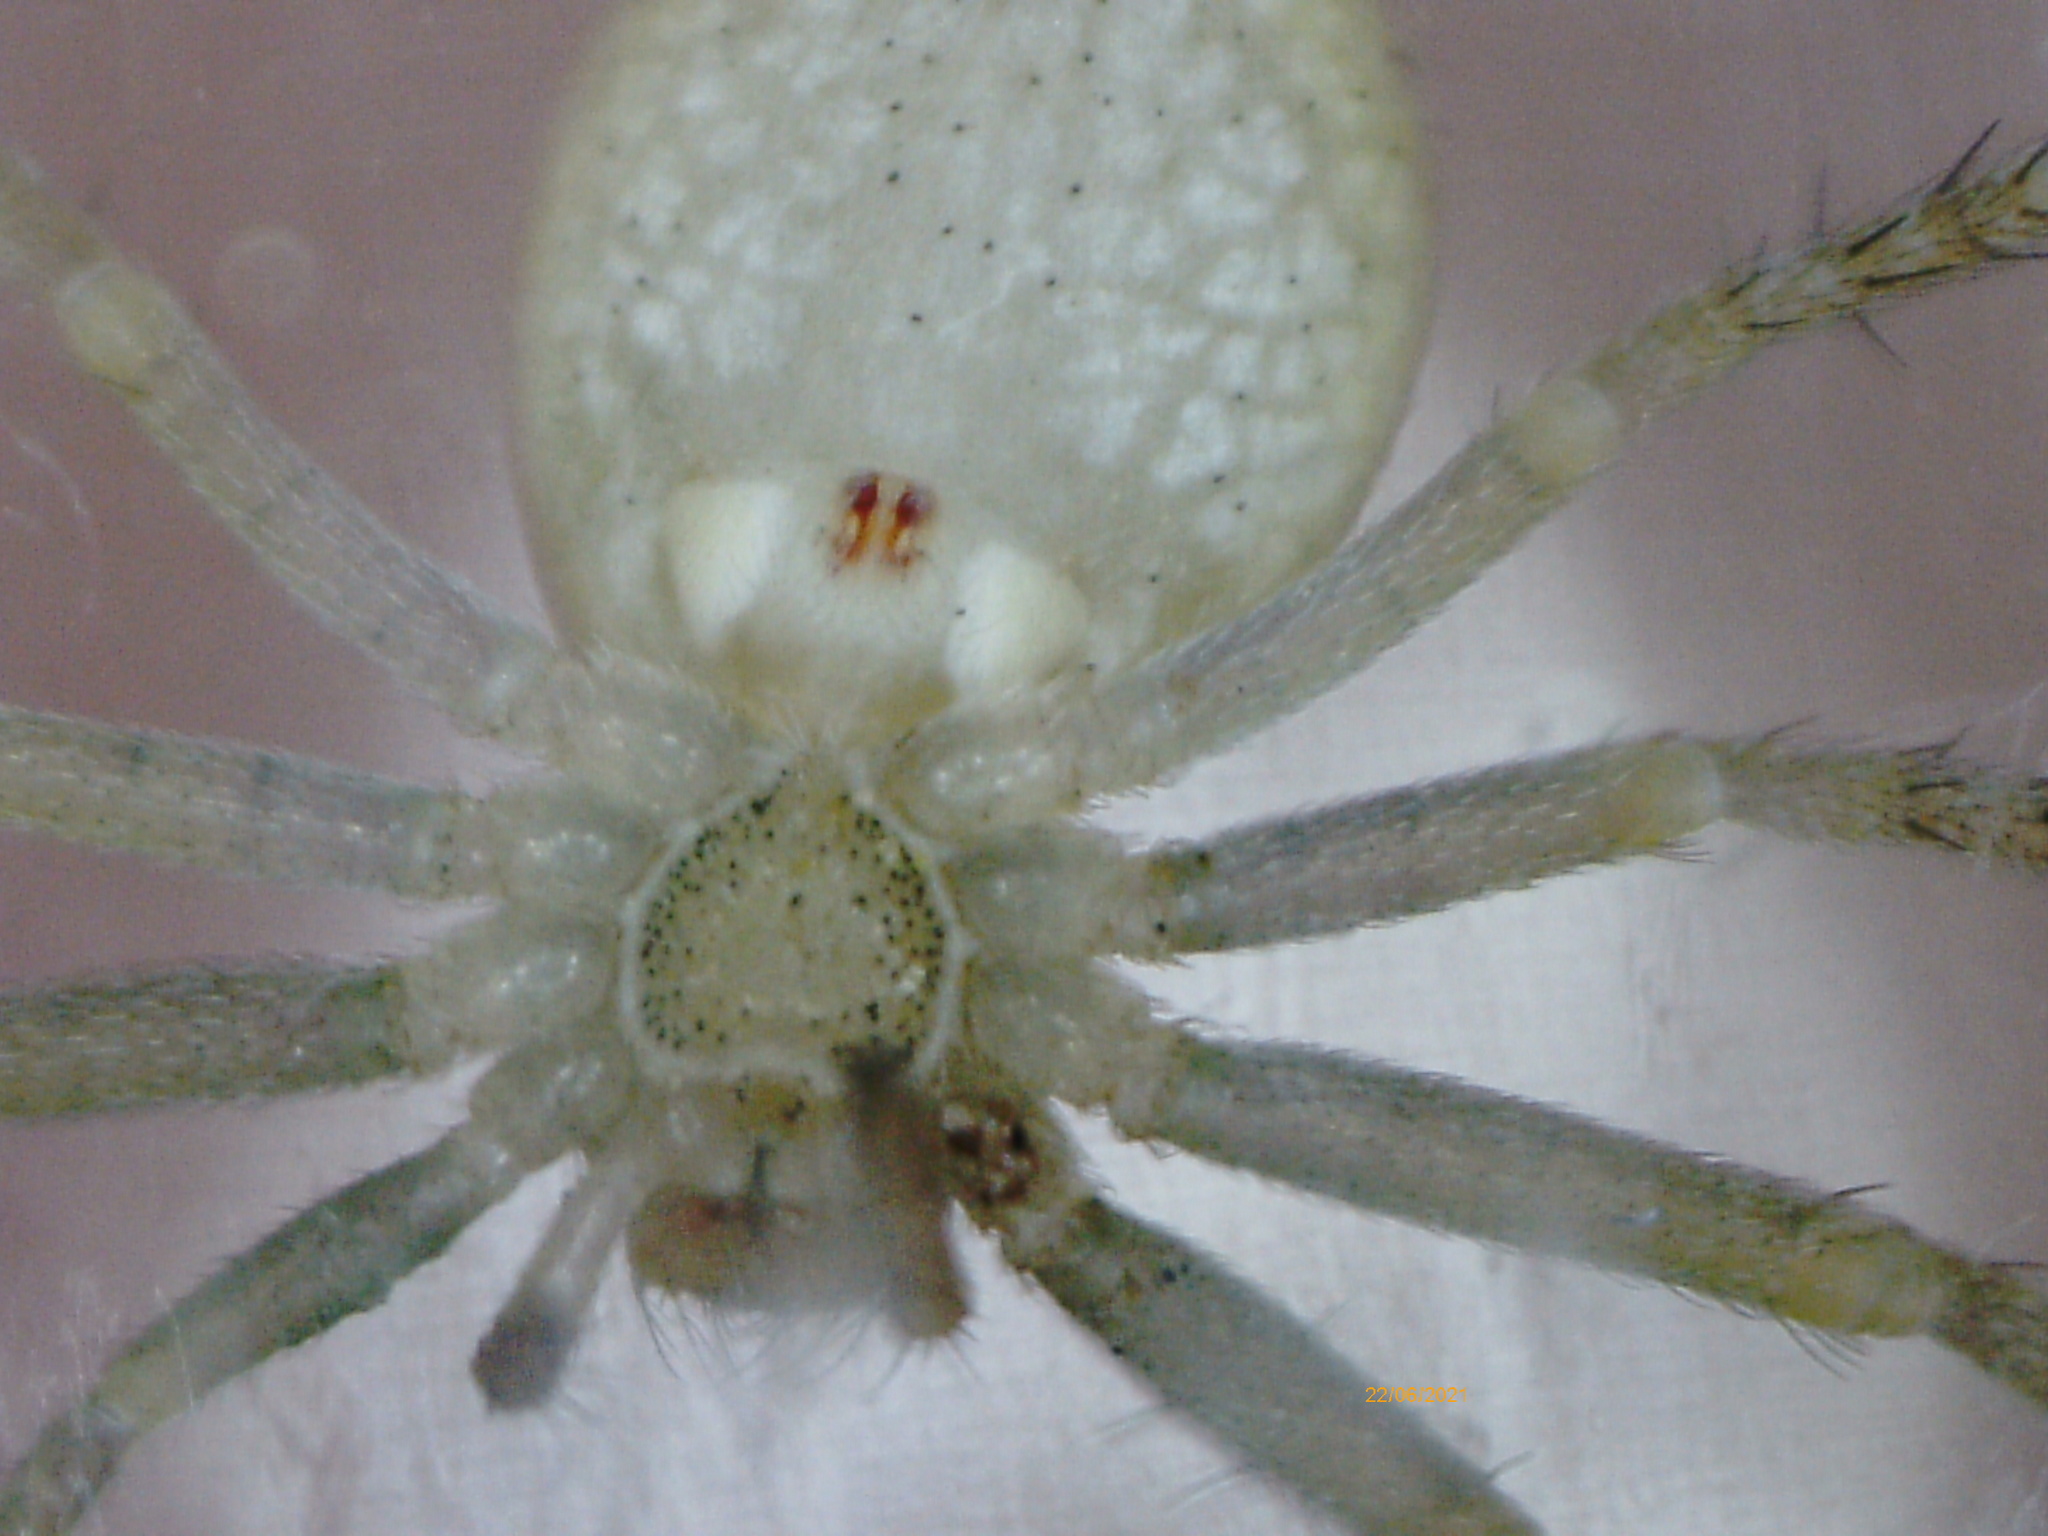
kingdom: Animalia
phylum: Arthropoda
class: Arachnida
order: Araneae
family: Philodromidae
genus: Philodromus
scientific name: Philodromus albidus
